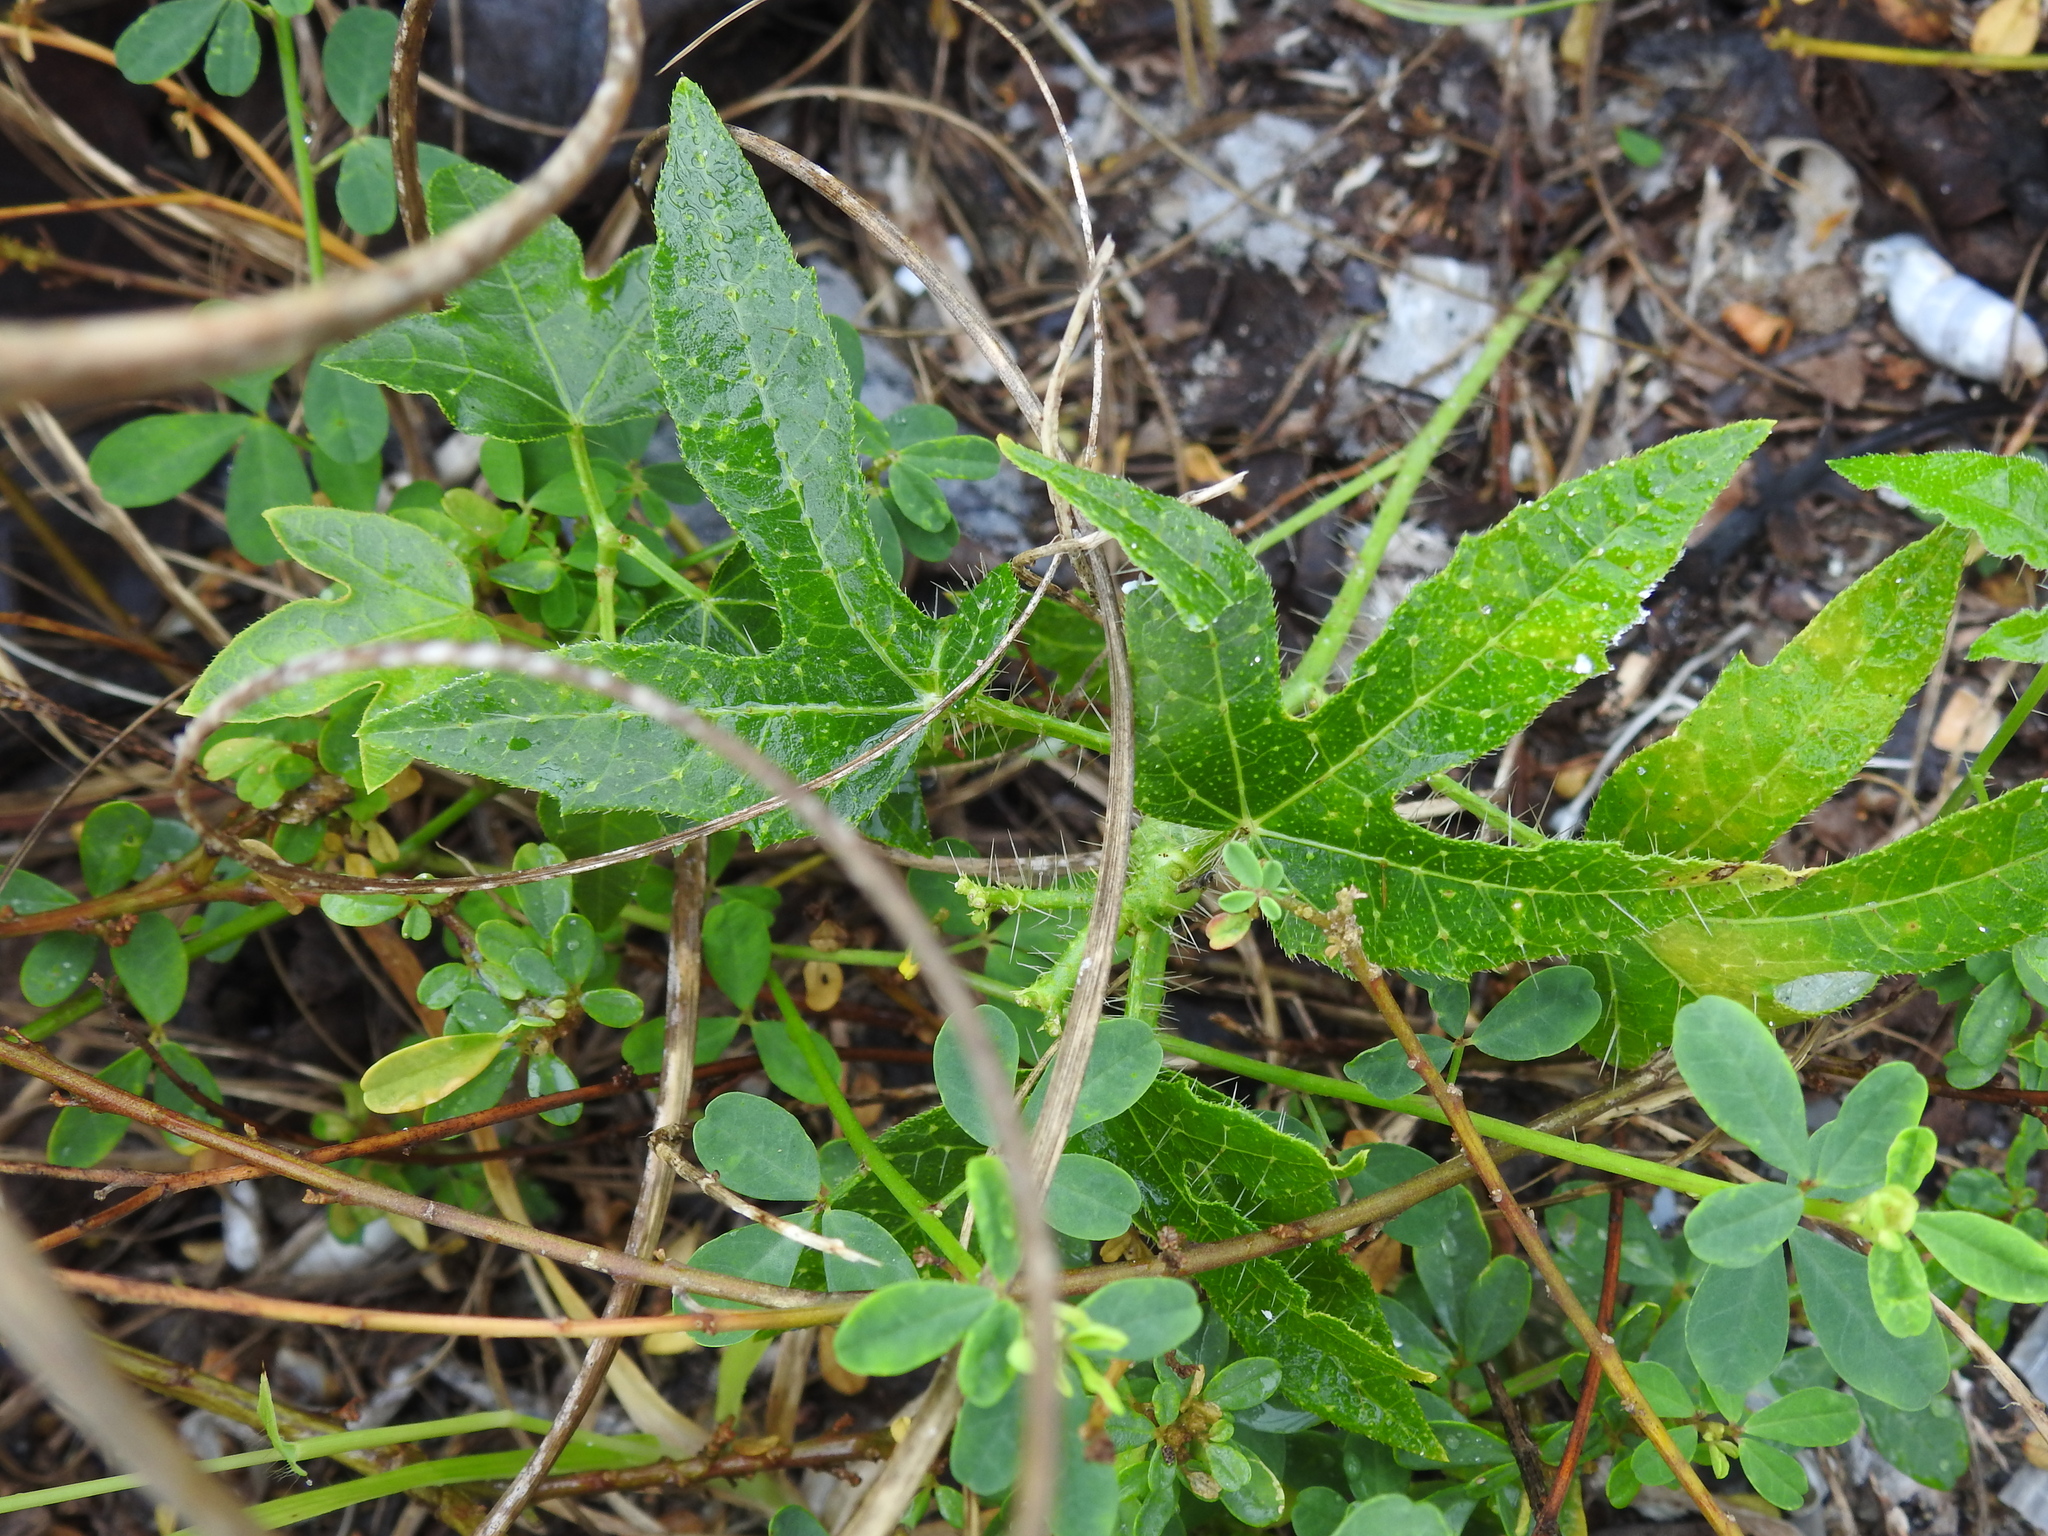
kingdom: Plantae
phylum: Tracheophyta
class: Magnoliopsida
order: Malpighiales
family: Euphorbiaceae
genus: Cnidoscolus
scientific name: Cnidoscolus stimulosus
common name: Bull-nettle
